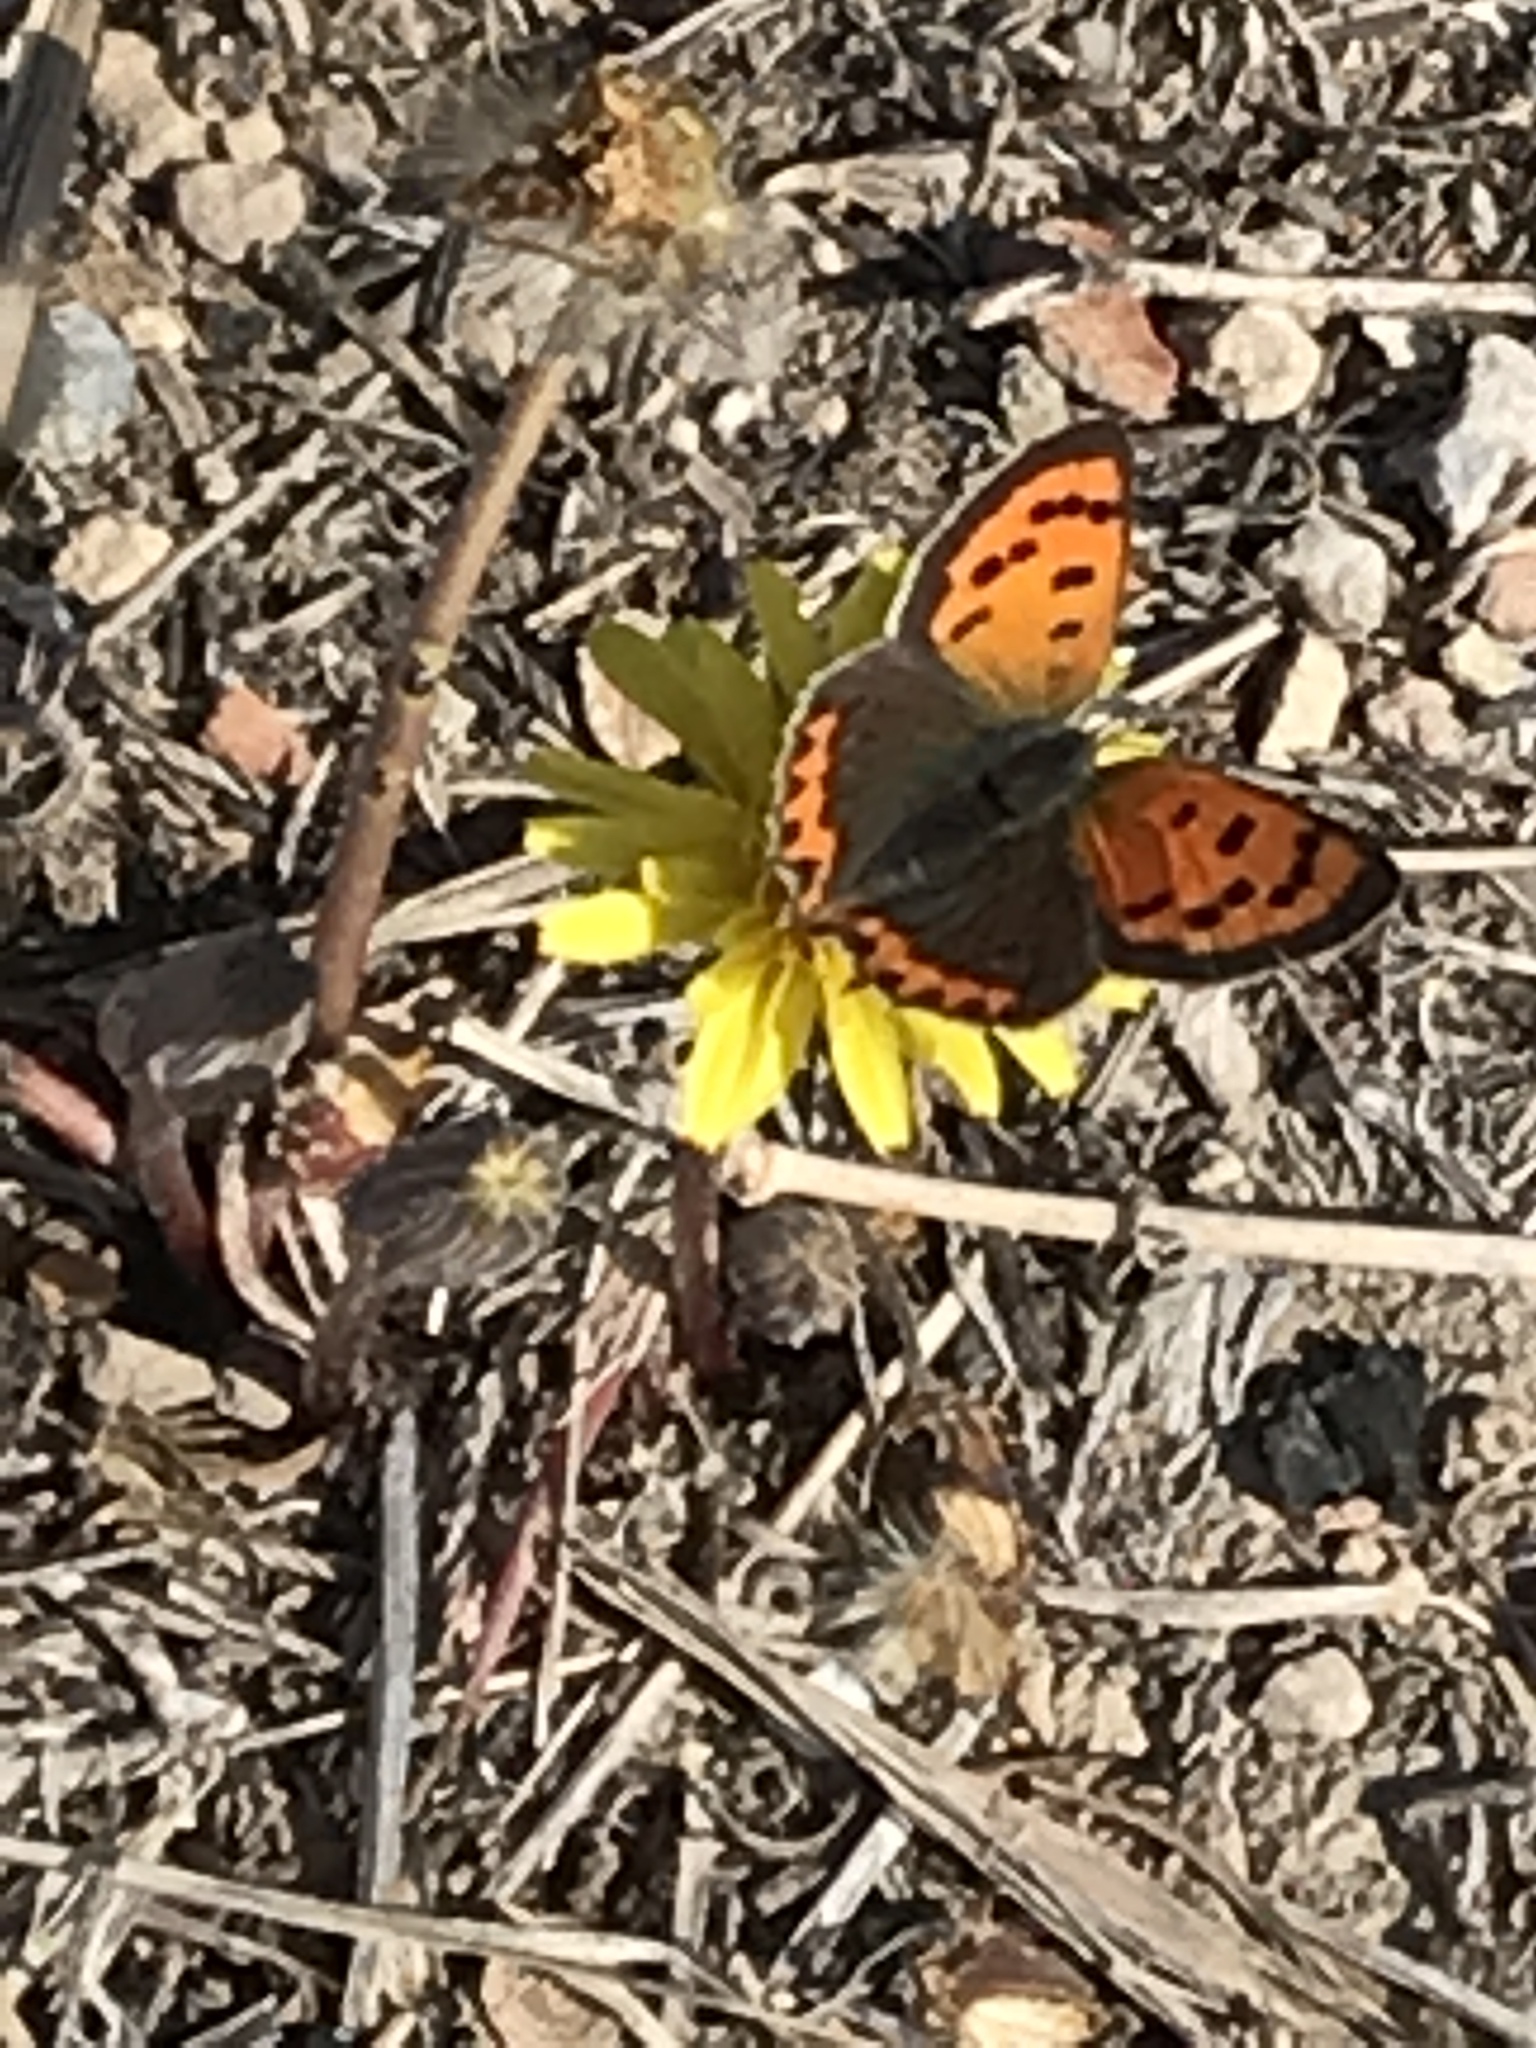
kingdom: Animalia
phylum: Arthropoda
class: Insecta
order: Lepidoptera
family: Lycaenidae
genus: Lycaena
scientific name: Lycaena phlaeas
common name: Small copper
